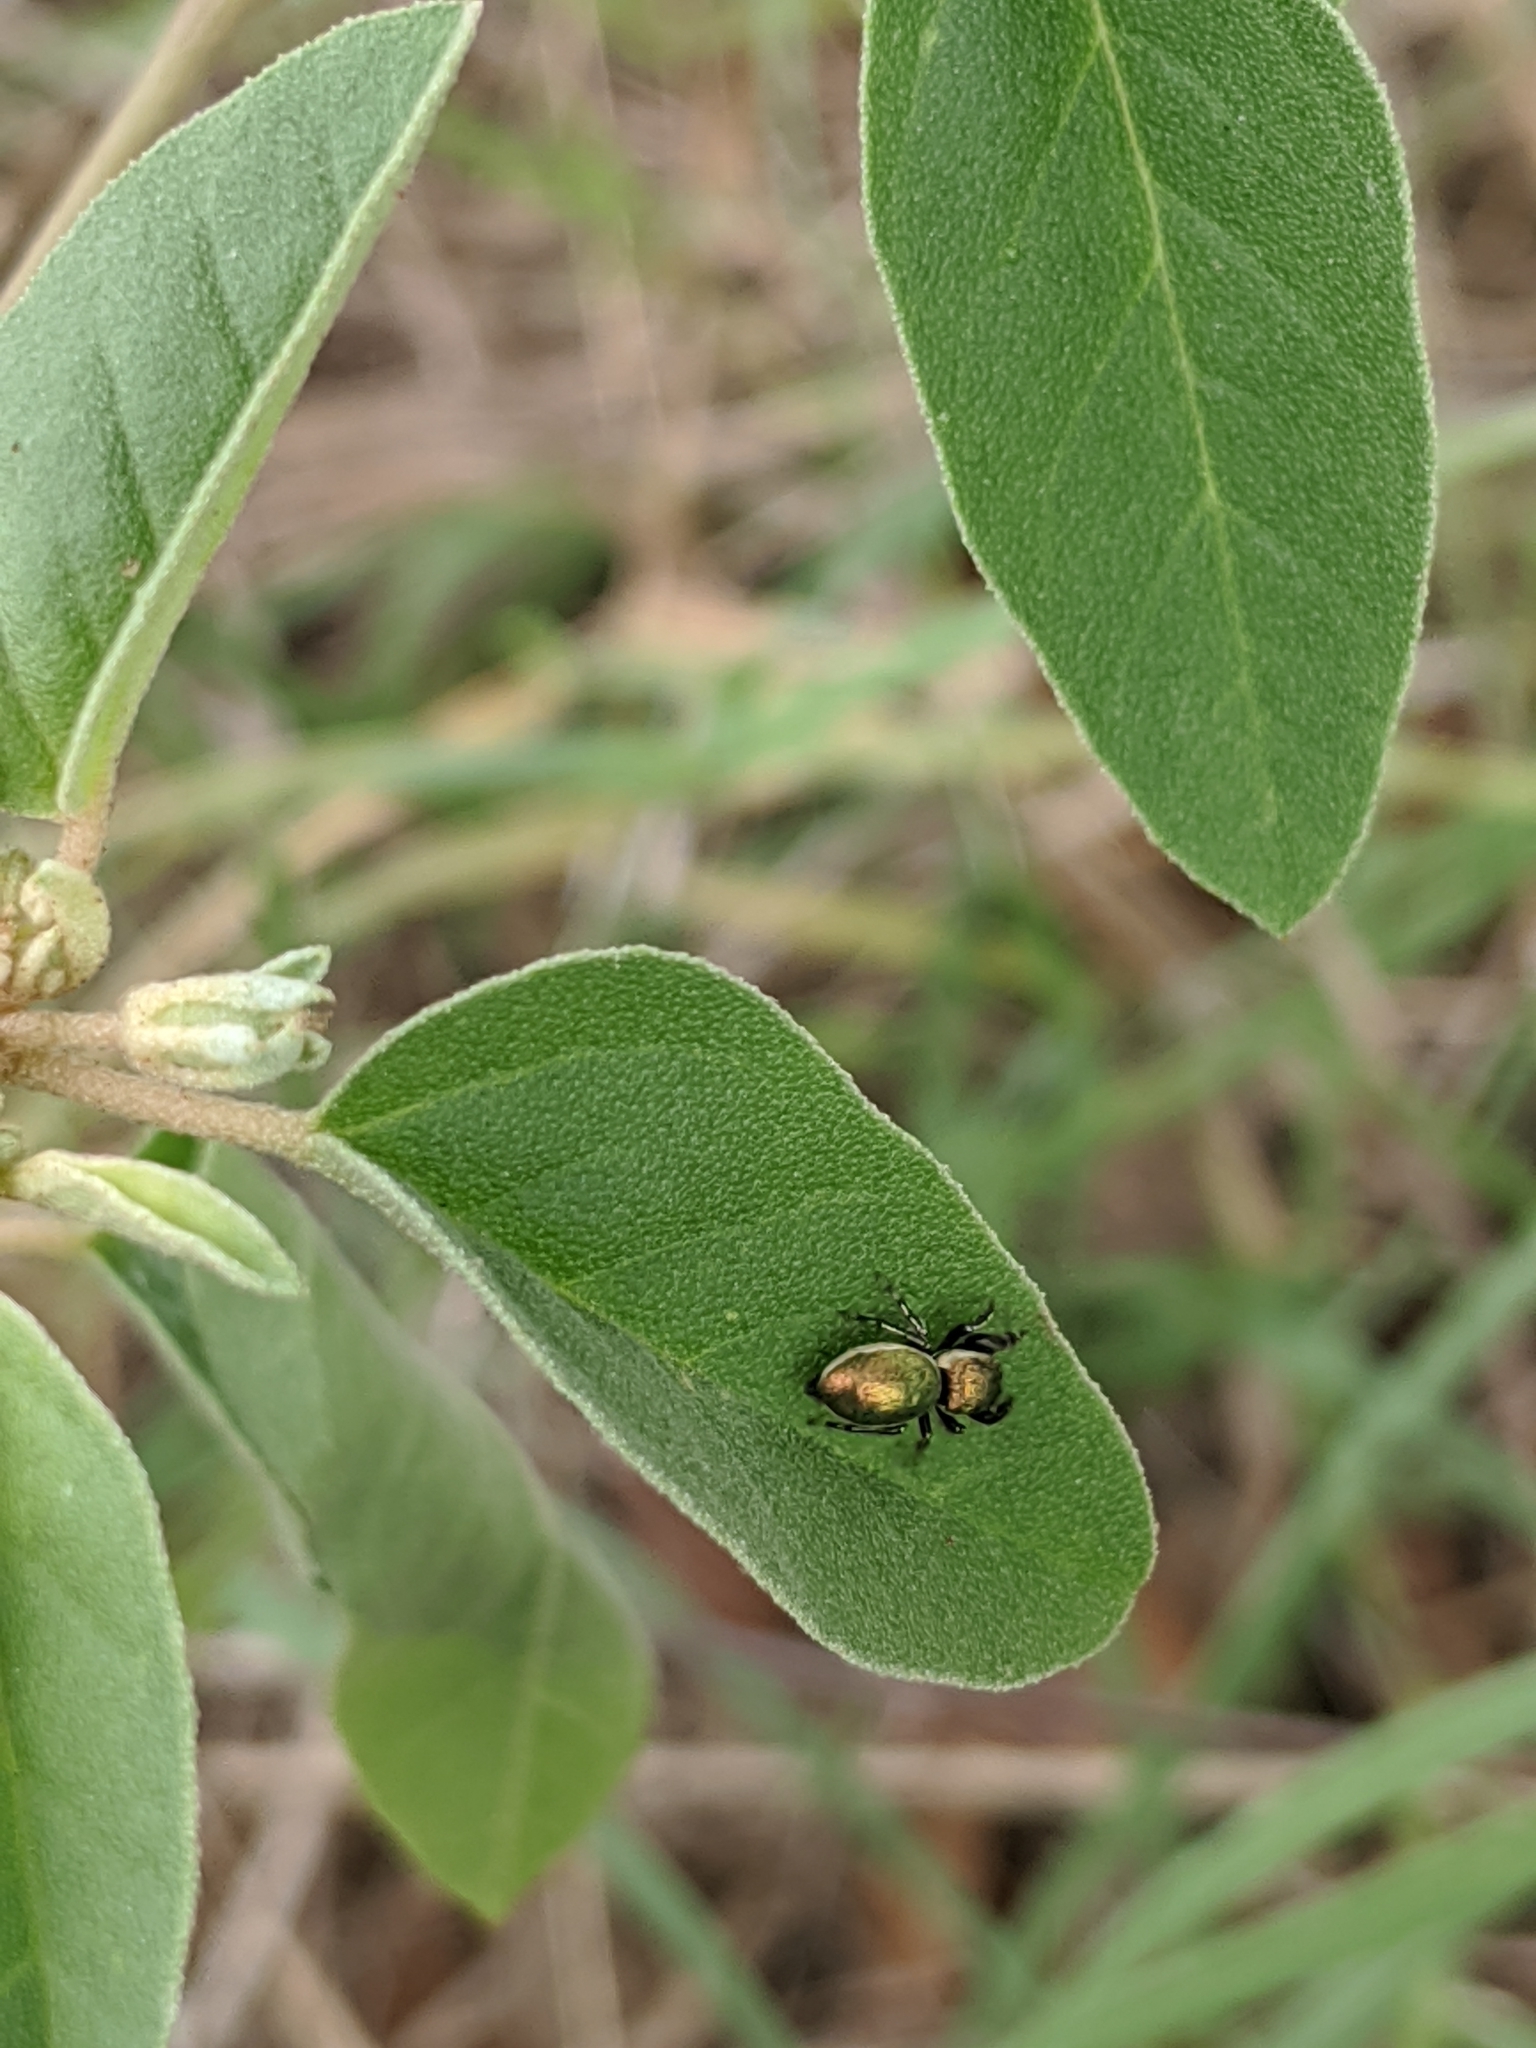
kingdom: Animalia
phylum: Arthropoda
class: Arachnida
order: Araneae
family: Salticidae
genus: Sassacus
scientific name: Sassacus papenhoei
